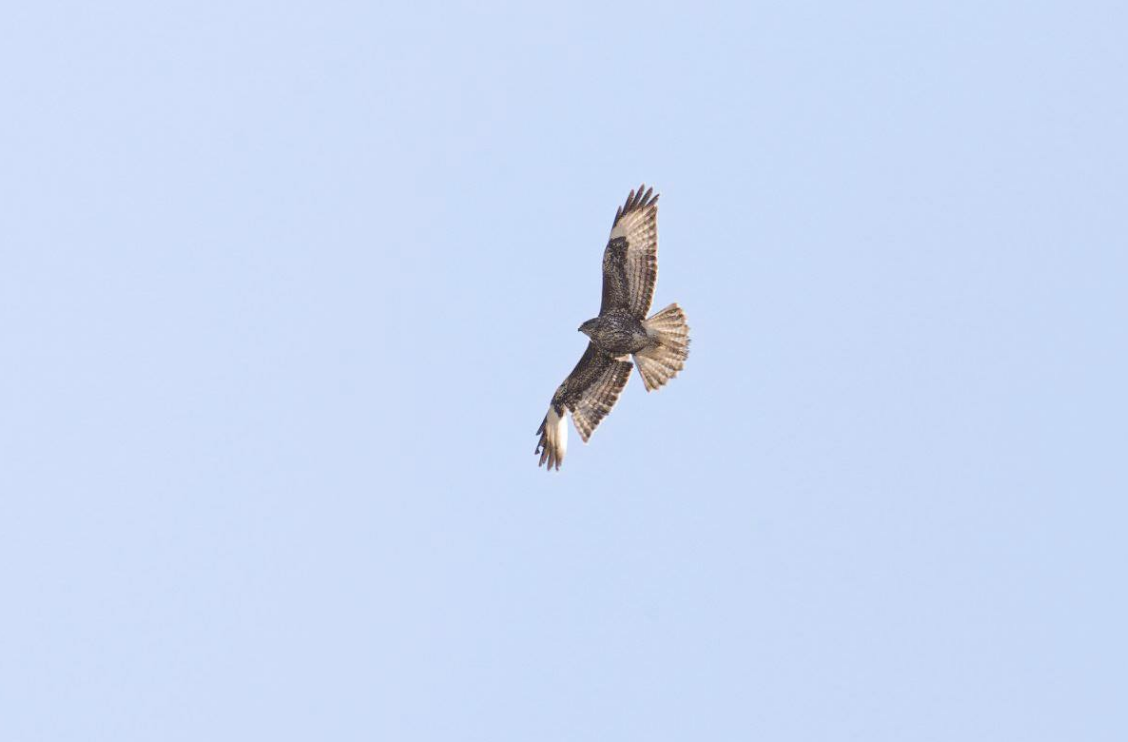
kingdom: Animalia
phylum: Chordata
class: Aves
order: Accipitriformes
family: Accipitridae
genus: Buteo
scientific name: Buteo buteo
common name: Common buzzard
